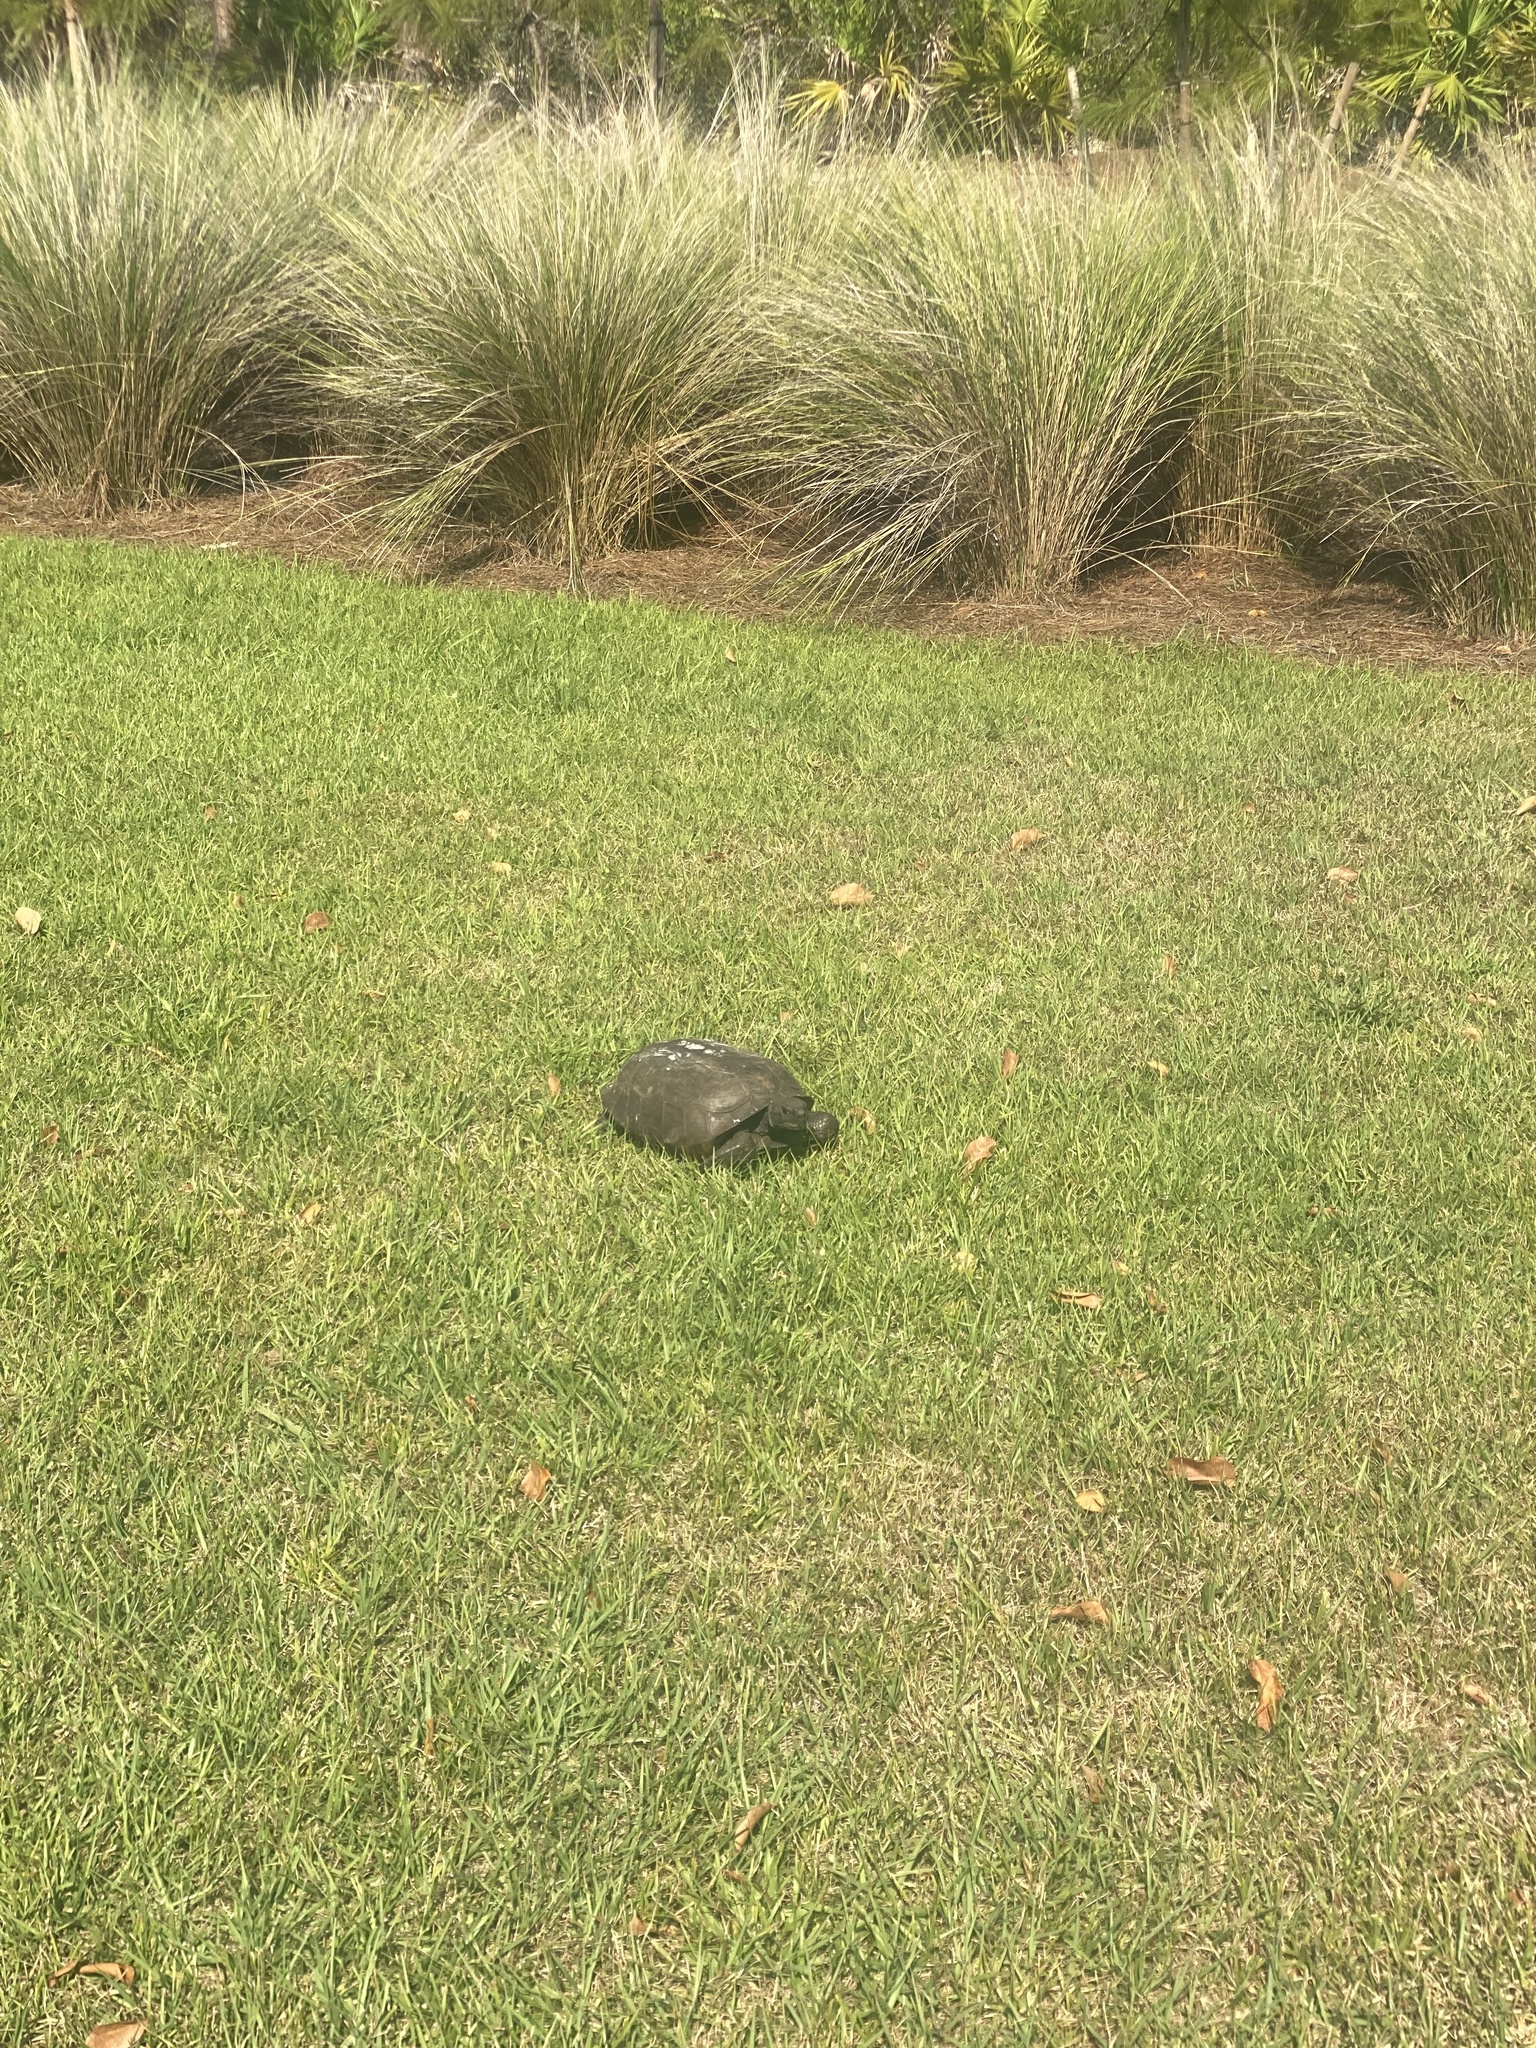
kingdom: Animalia
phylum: Chordata
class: Testudines
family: Testudinidae
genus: Gopherus
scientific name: Gopherus polyphemus
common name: Florida gopher tortoise
